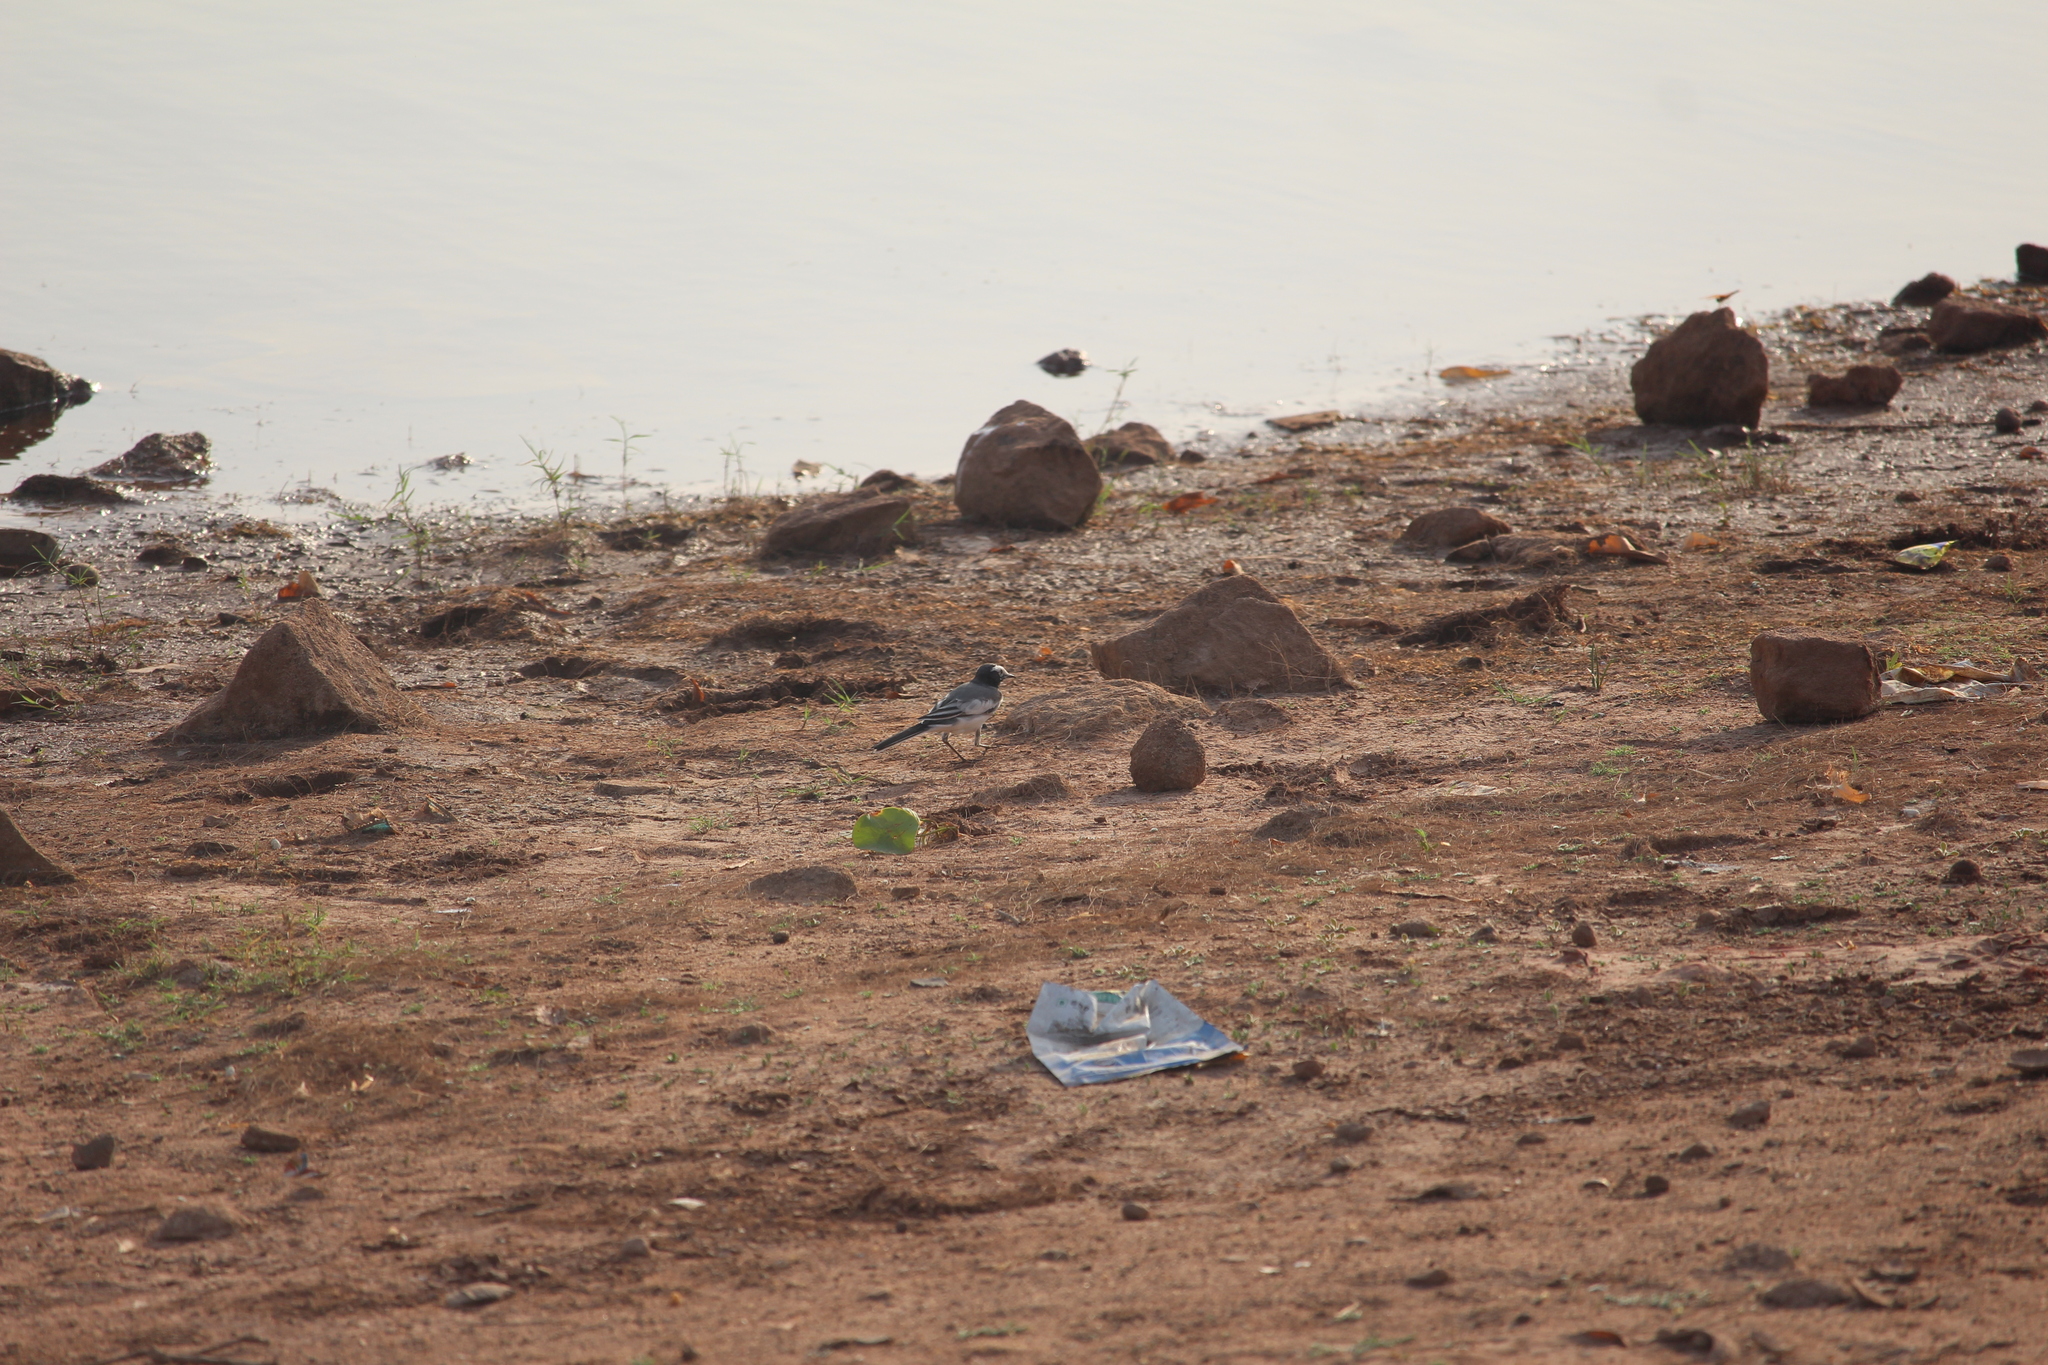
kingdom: Animalia
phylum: Chordata
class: Aves
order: Passeriformes
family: Motacillidae
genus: Motacilla
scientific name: Motacilla alba
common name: White wagtail
